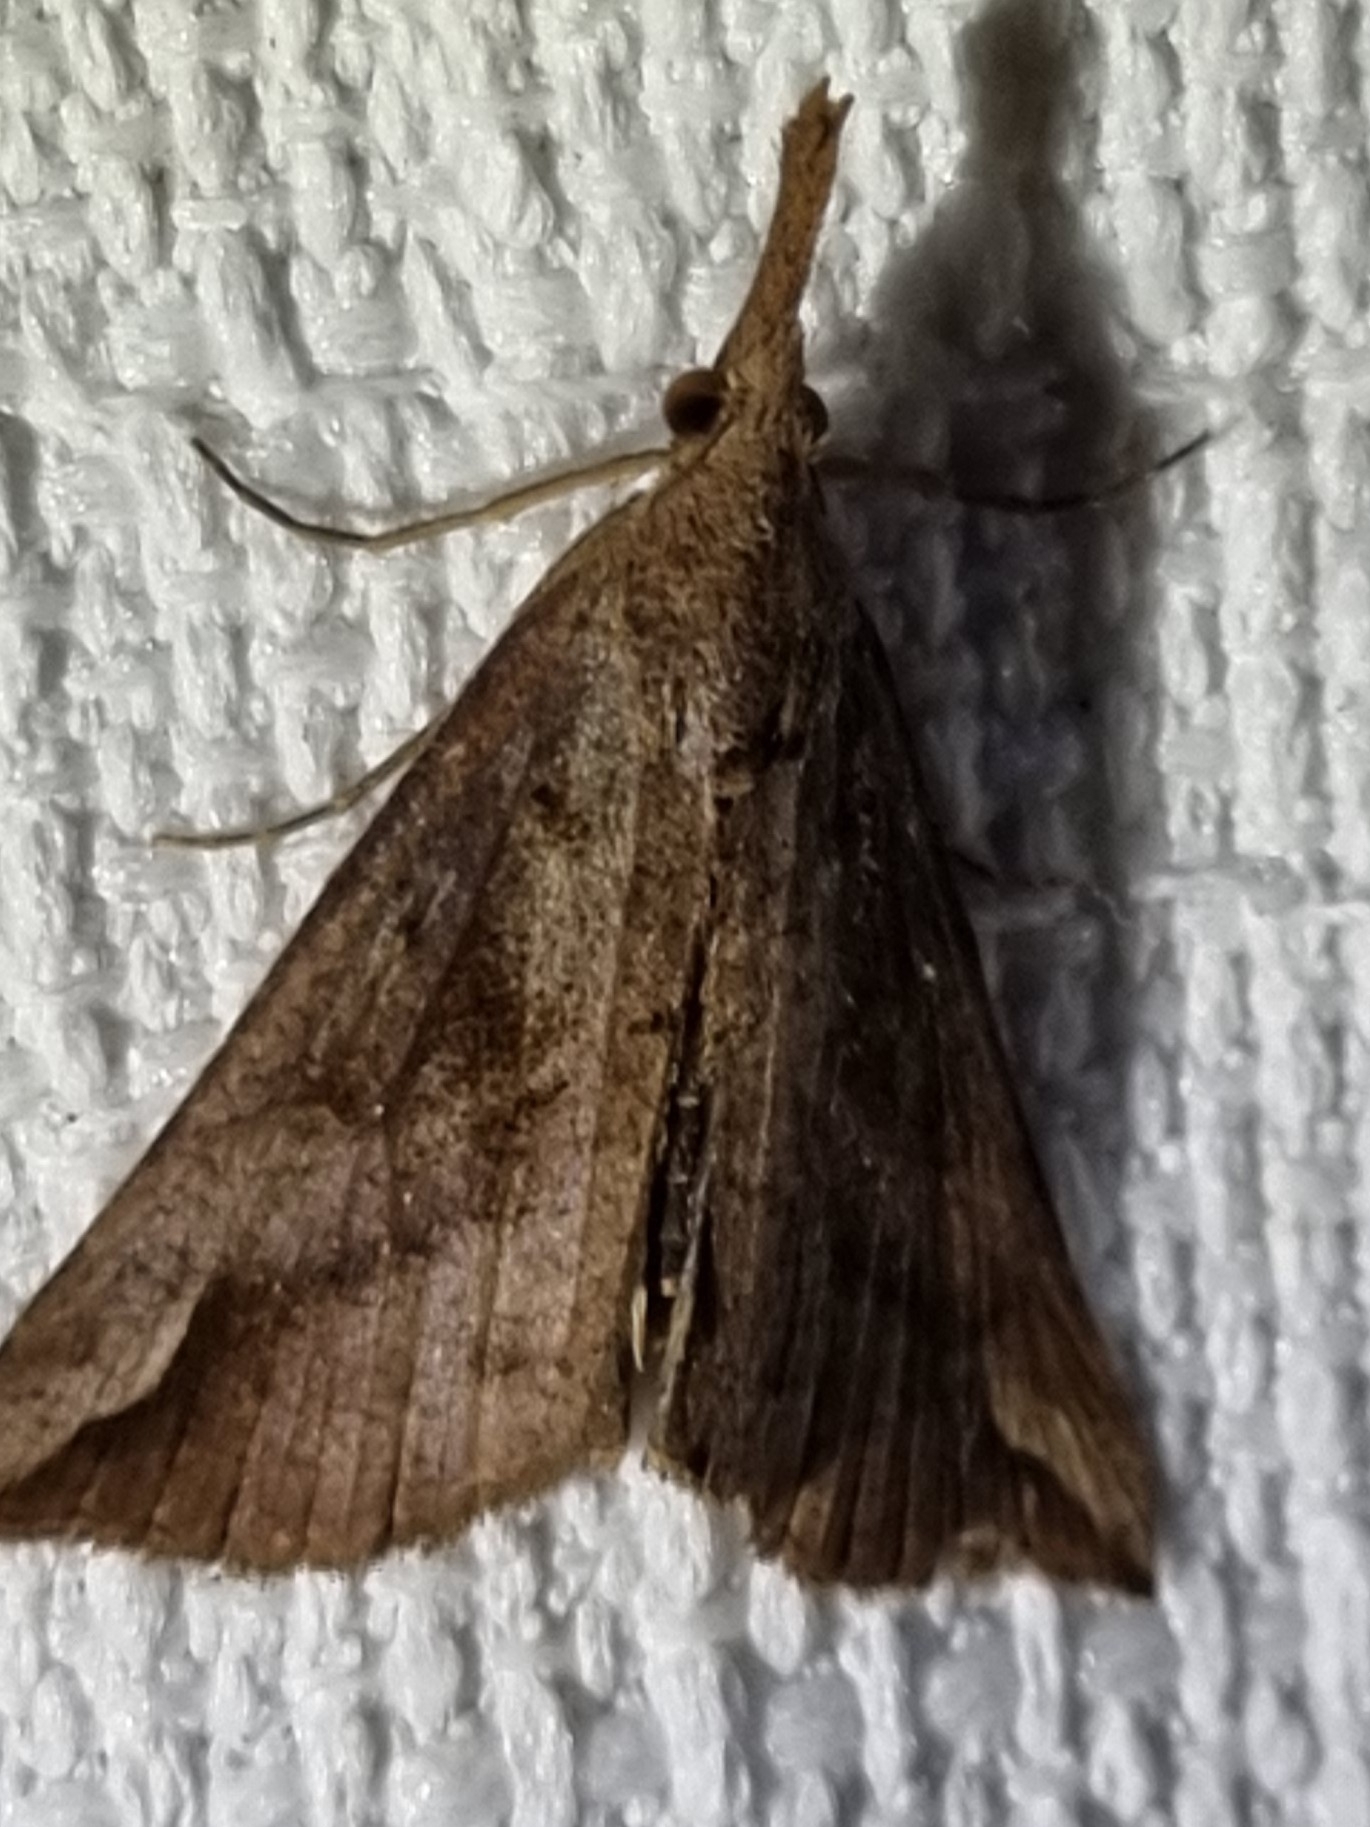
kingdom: Animalia
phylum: Arthropoda
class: Insecta
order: Lepidoptera
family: Erebidae
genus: Hypena
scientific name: Hypena pelodes
